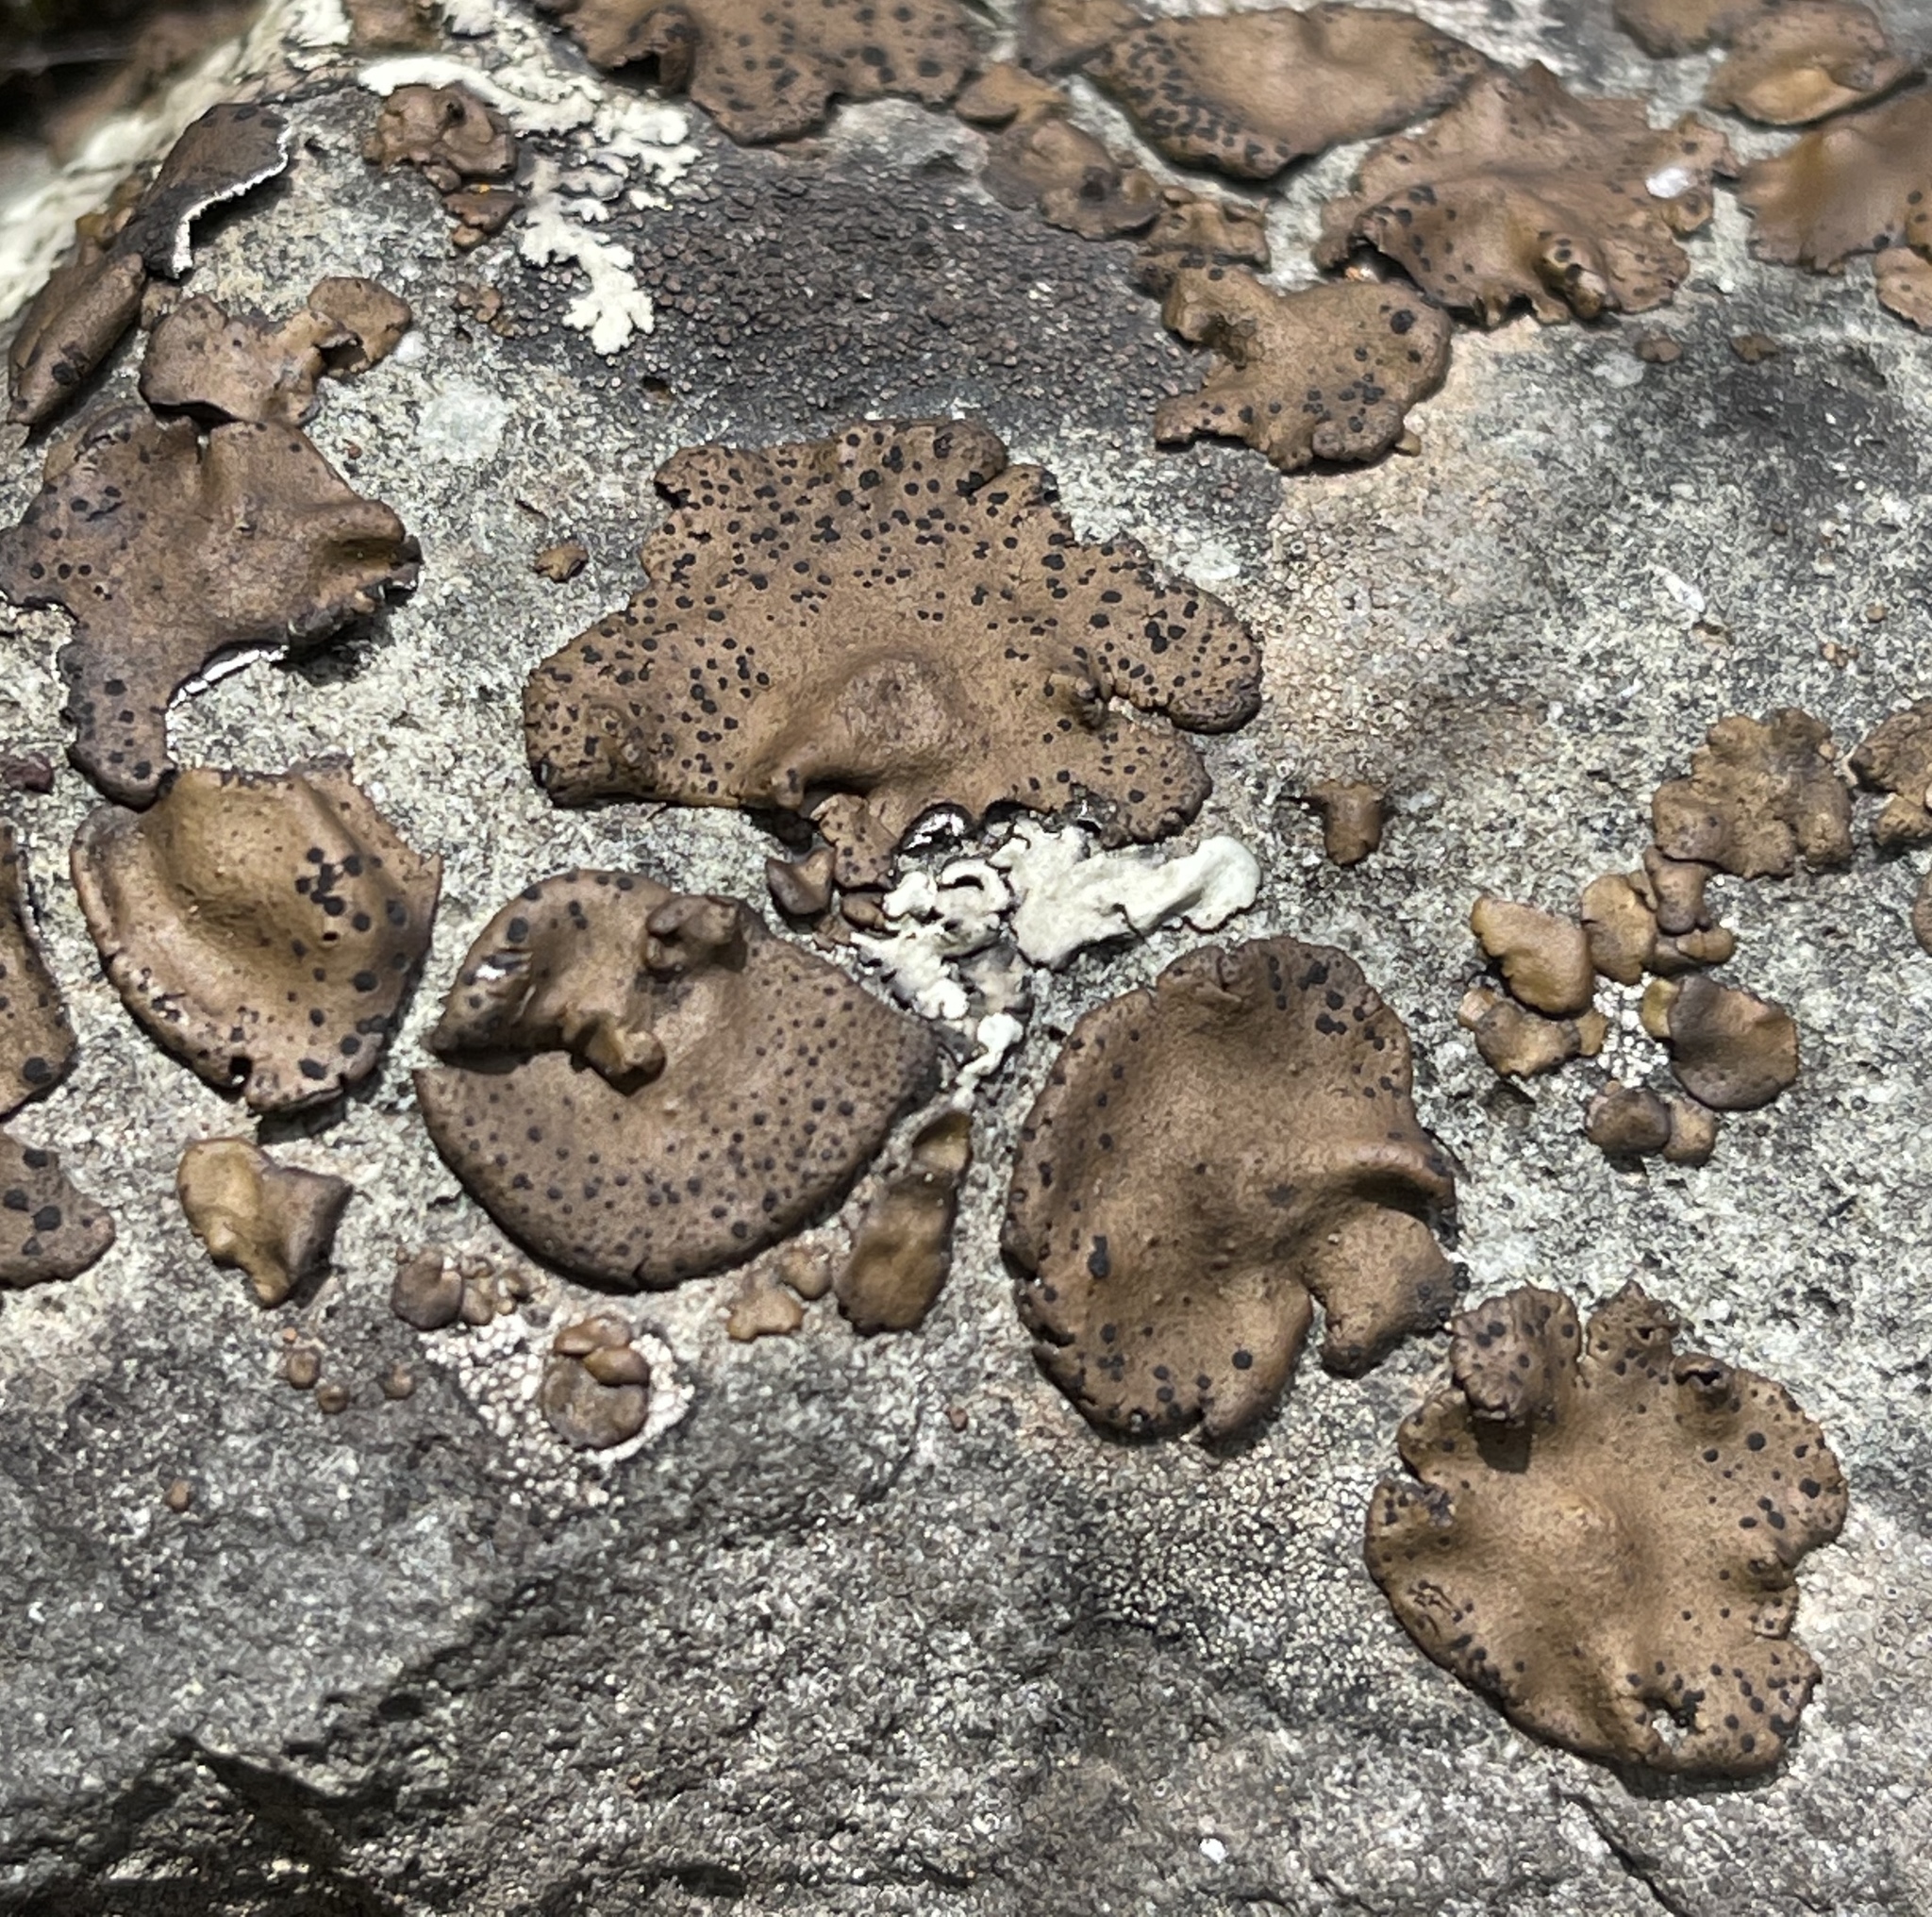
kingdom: Fungi
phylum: Ascomycota
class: Lecanoromycetes
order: Umbilicariales
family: Umbilicariaceae
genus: Umbilicaria
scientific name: Umbilicaria phaea
